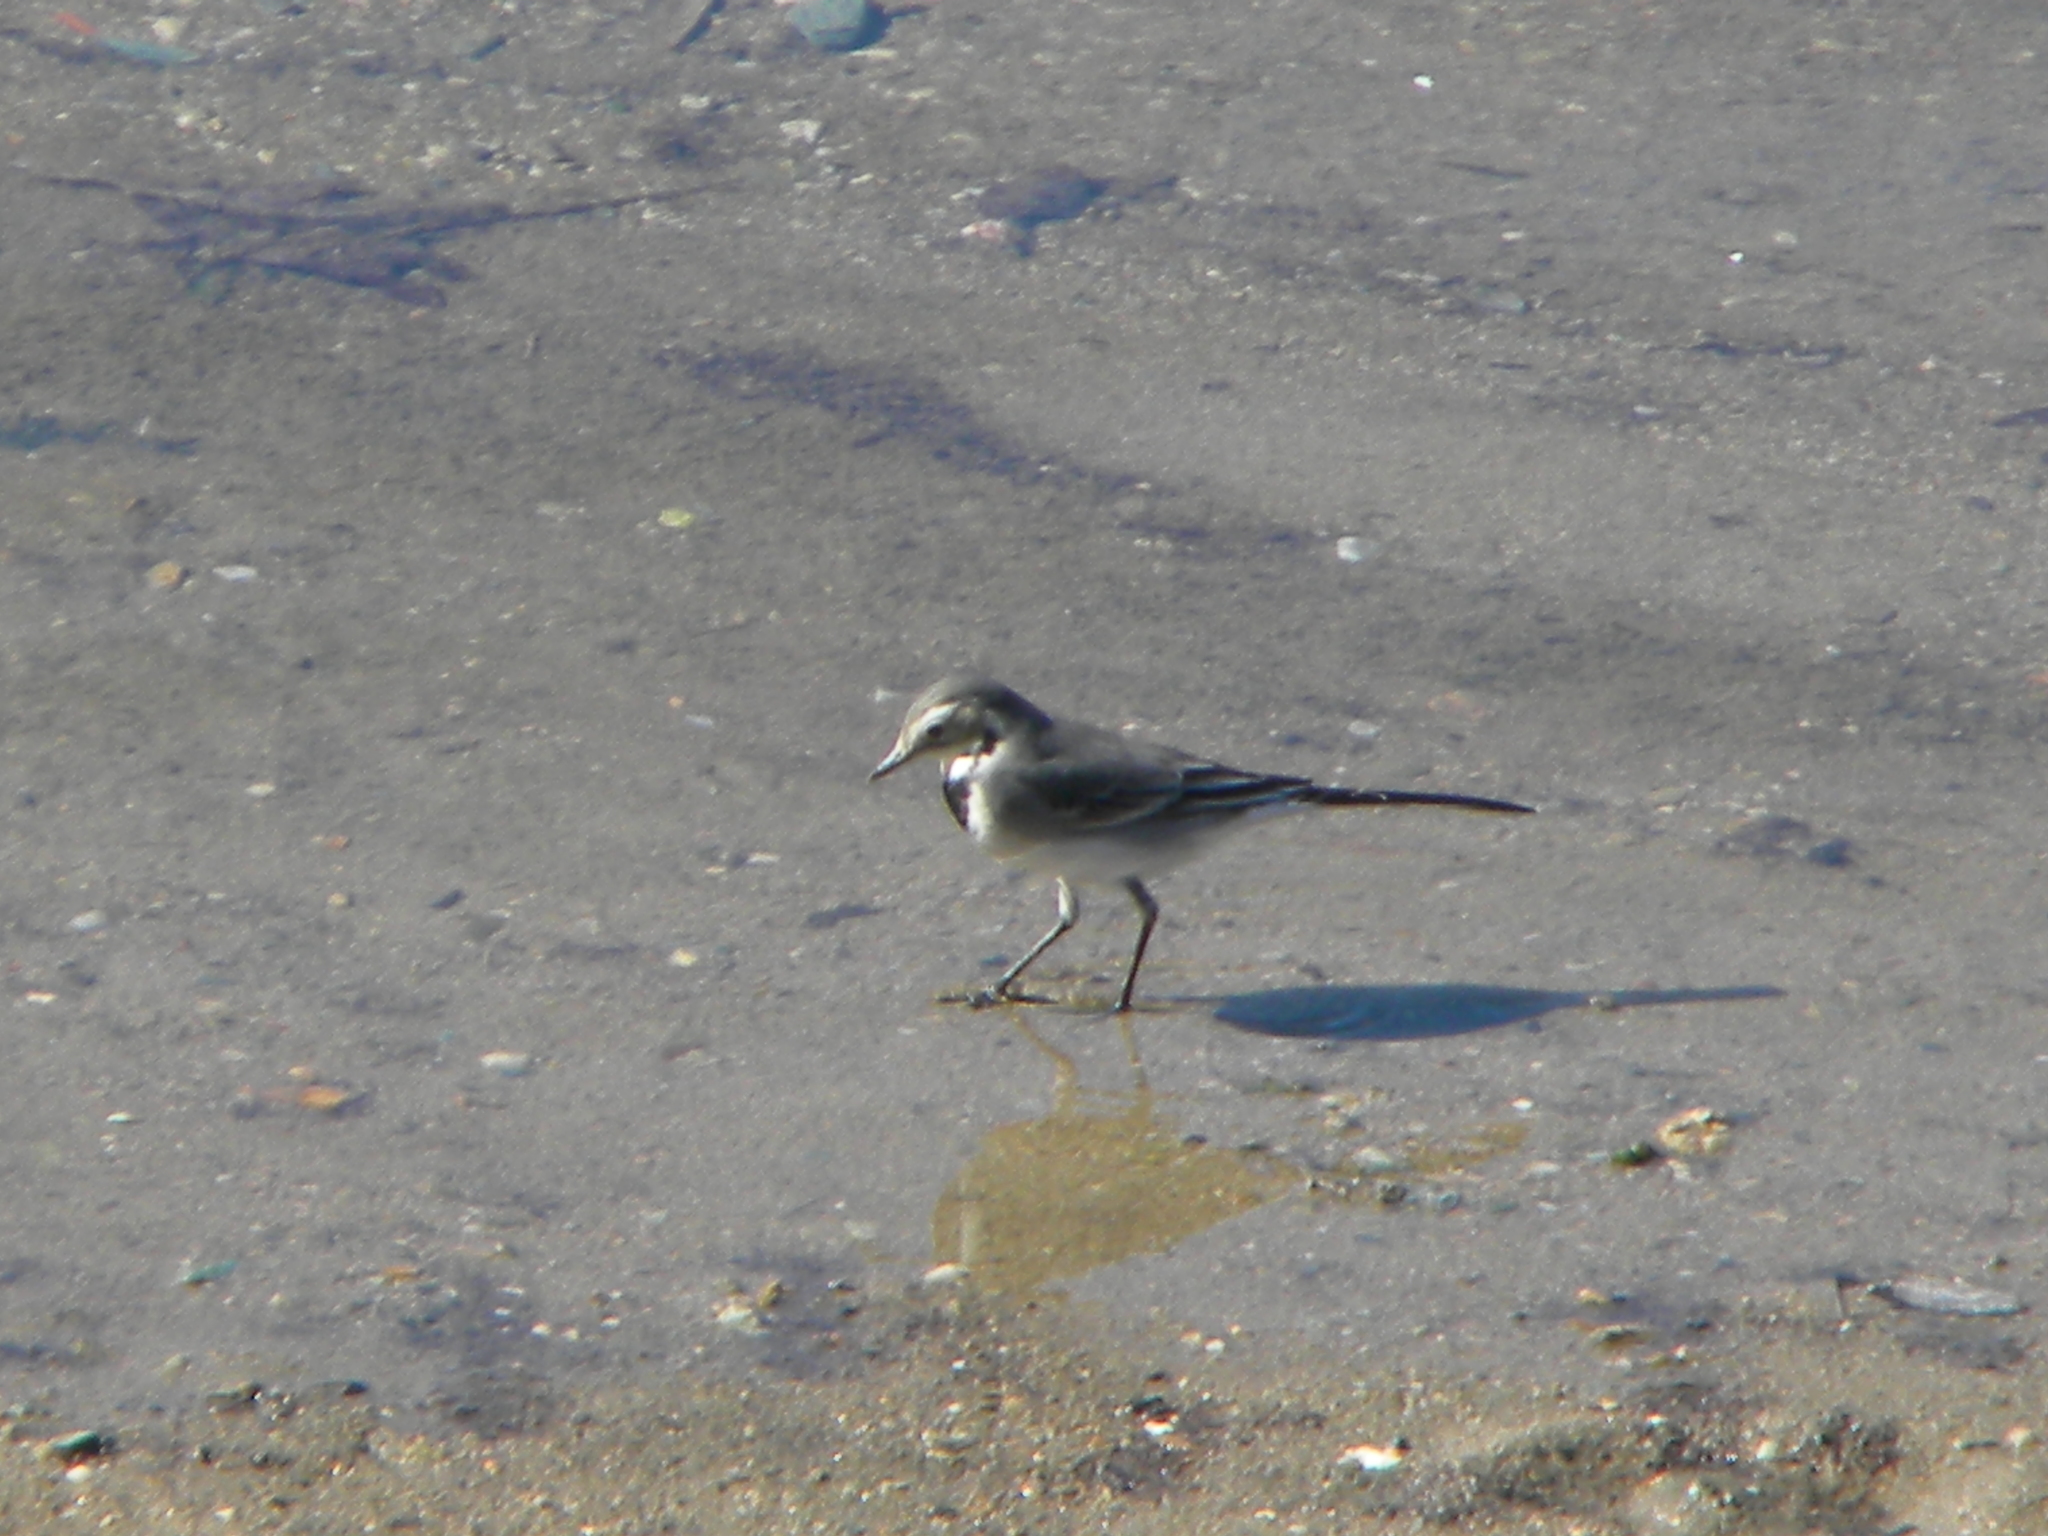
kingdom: Animalia
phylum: Chordata
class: Aves
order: Passeriformes
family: Motacillidae
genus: Motacilla
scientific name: Motacilla alba
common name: White wagtail
